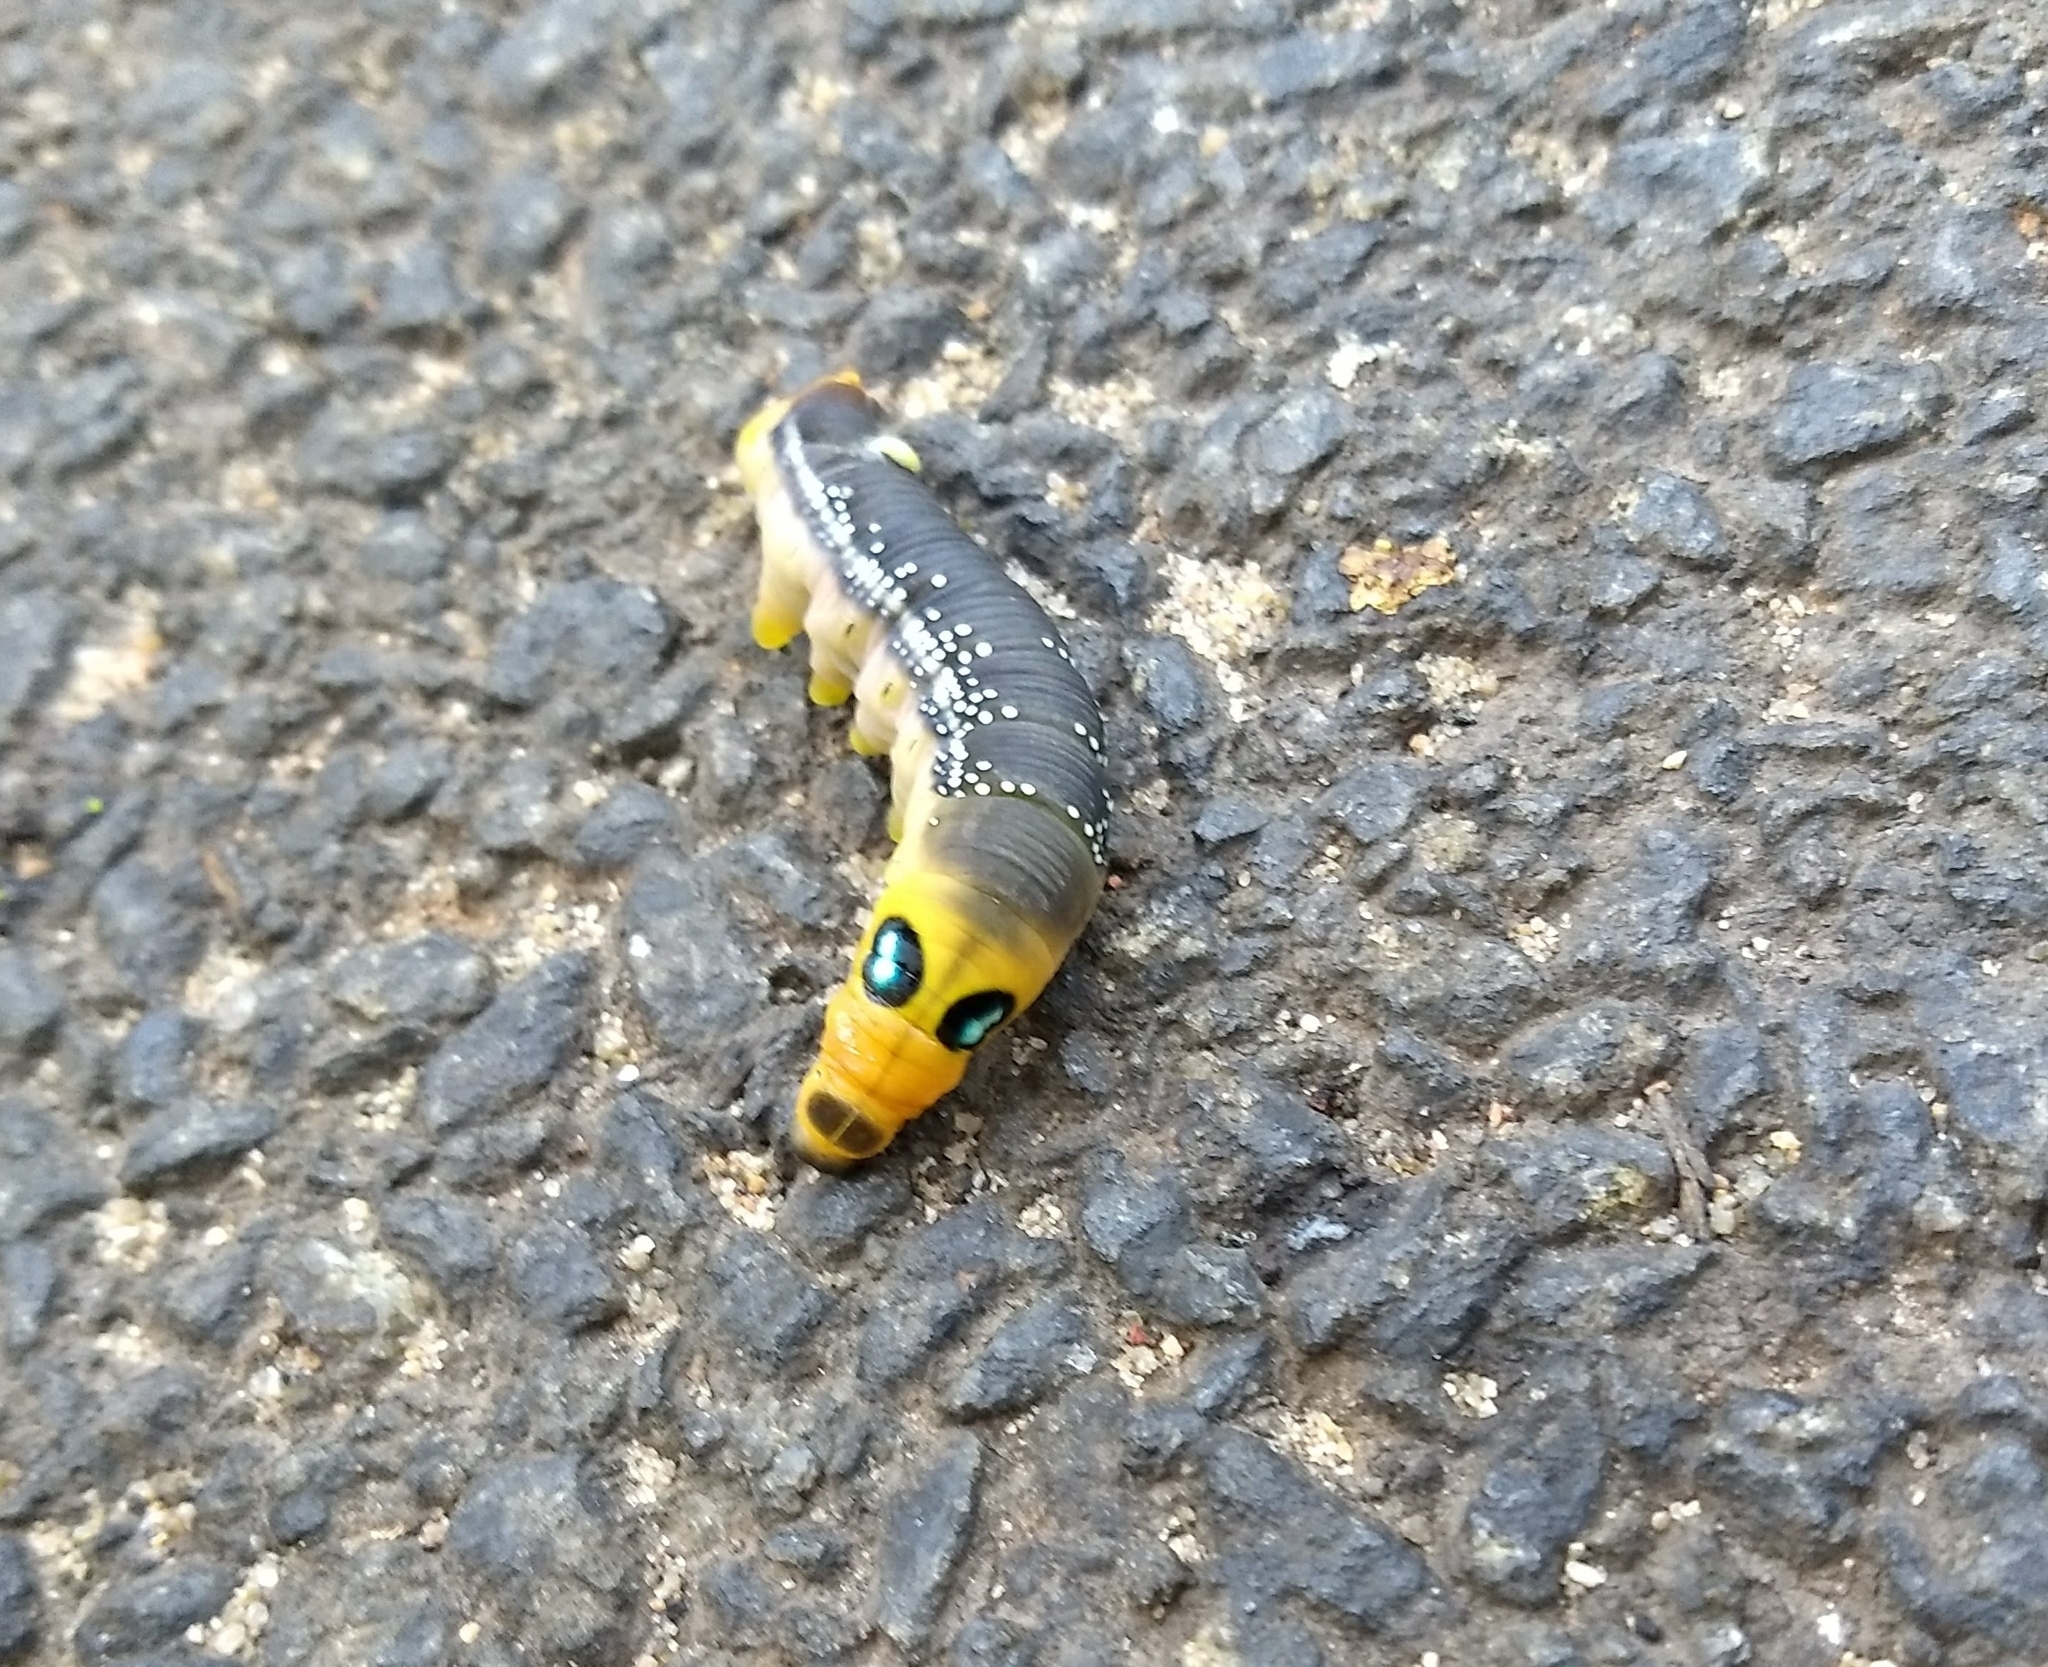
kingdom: Animalia
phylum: Arthropoda
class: Insecta
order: Lepidoptera
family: Sphingidae
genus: Daphnis
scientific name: Daphnis nerii
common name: Oleander hawk-moth
